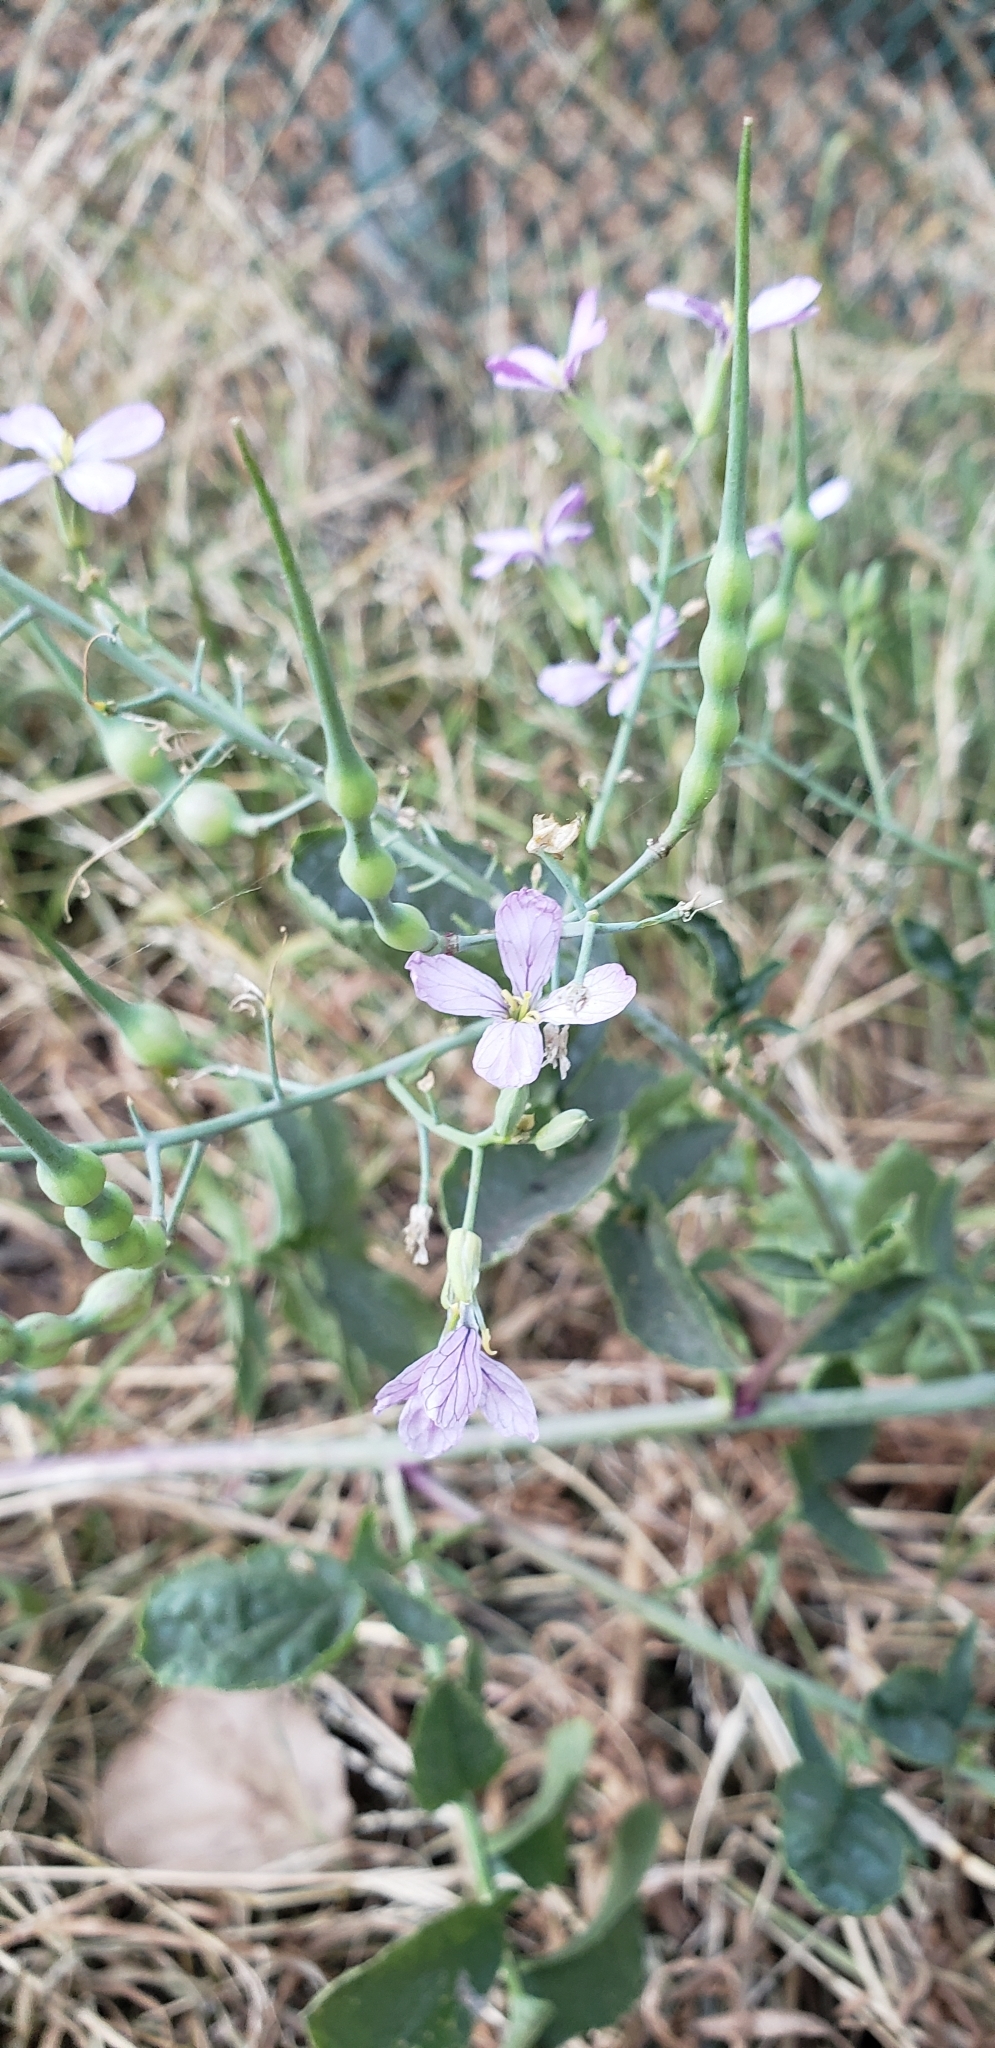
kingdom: Plantae
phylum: Tracheophyta
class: Magnoliopsida
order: Brassicales
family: Brassicaceae
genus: Raphanus
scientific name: Raphanus sativus
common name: Cultivated radish
